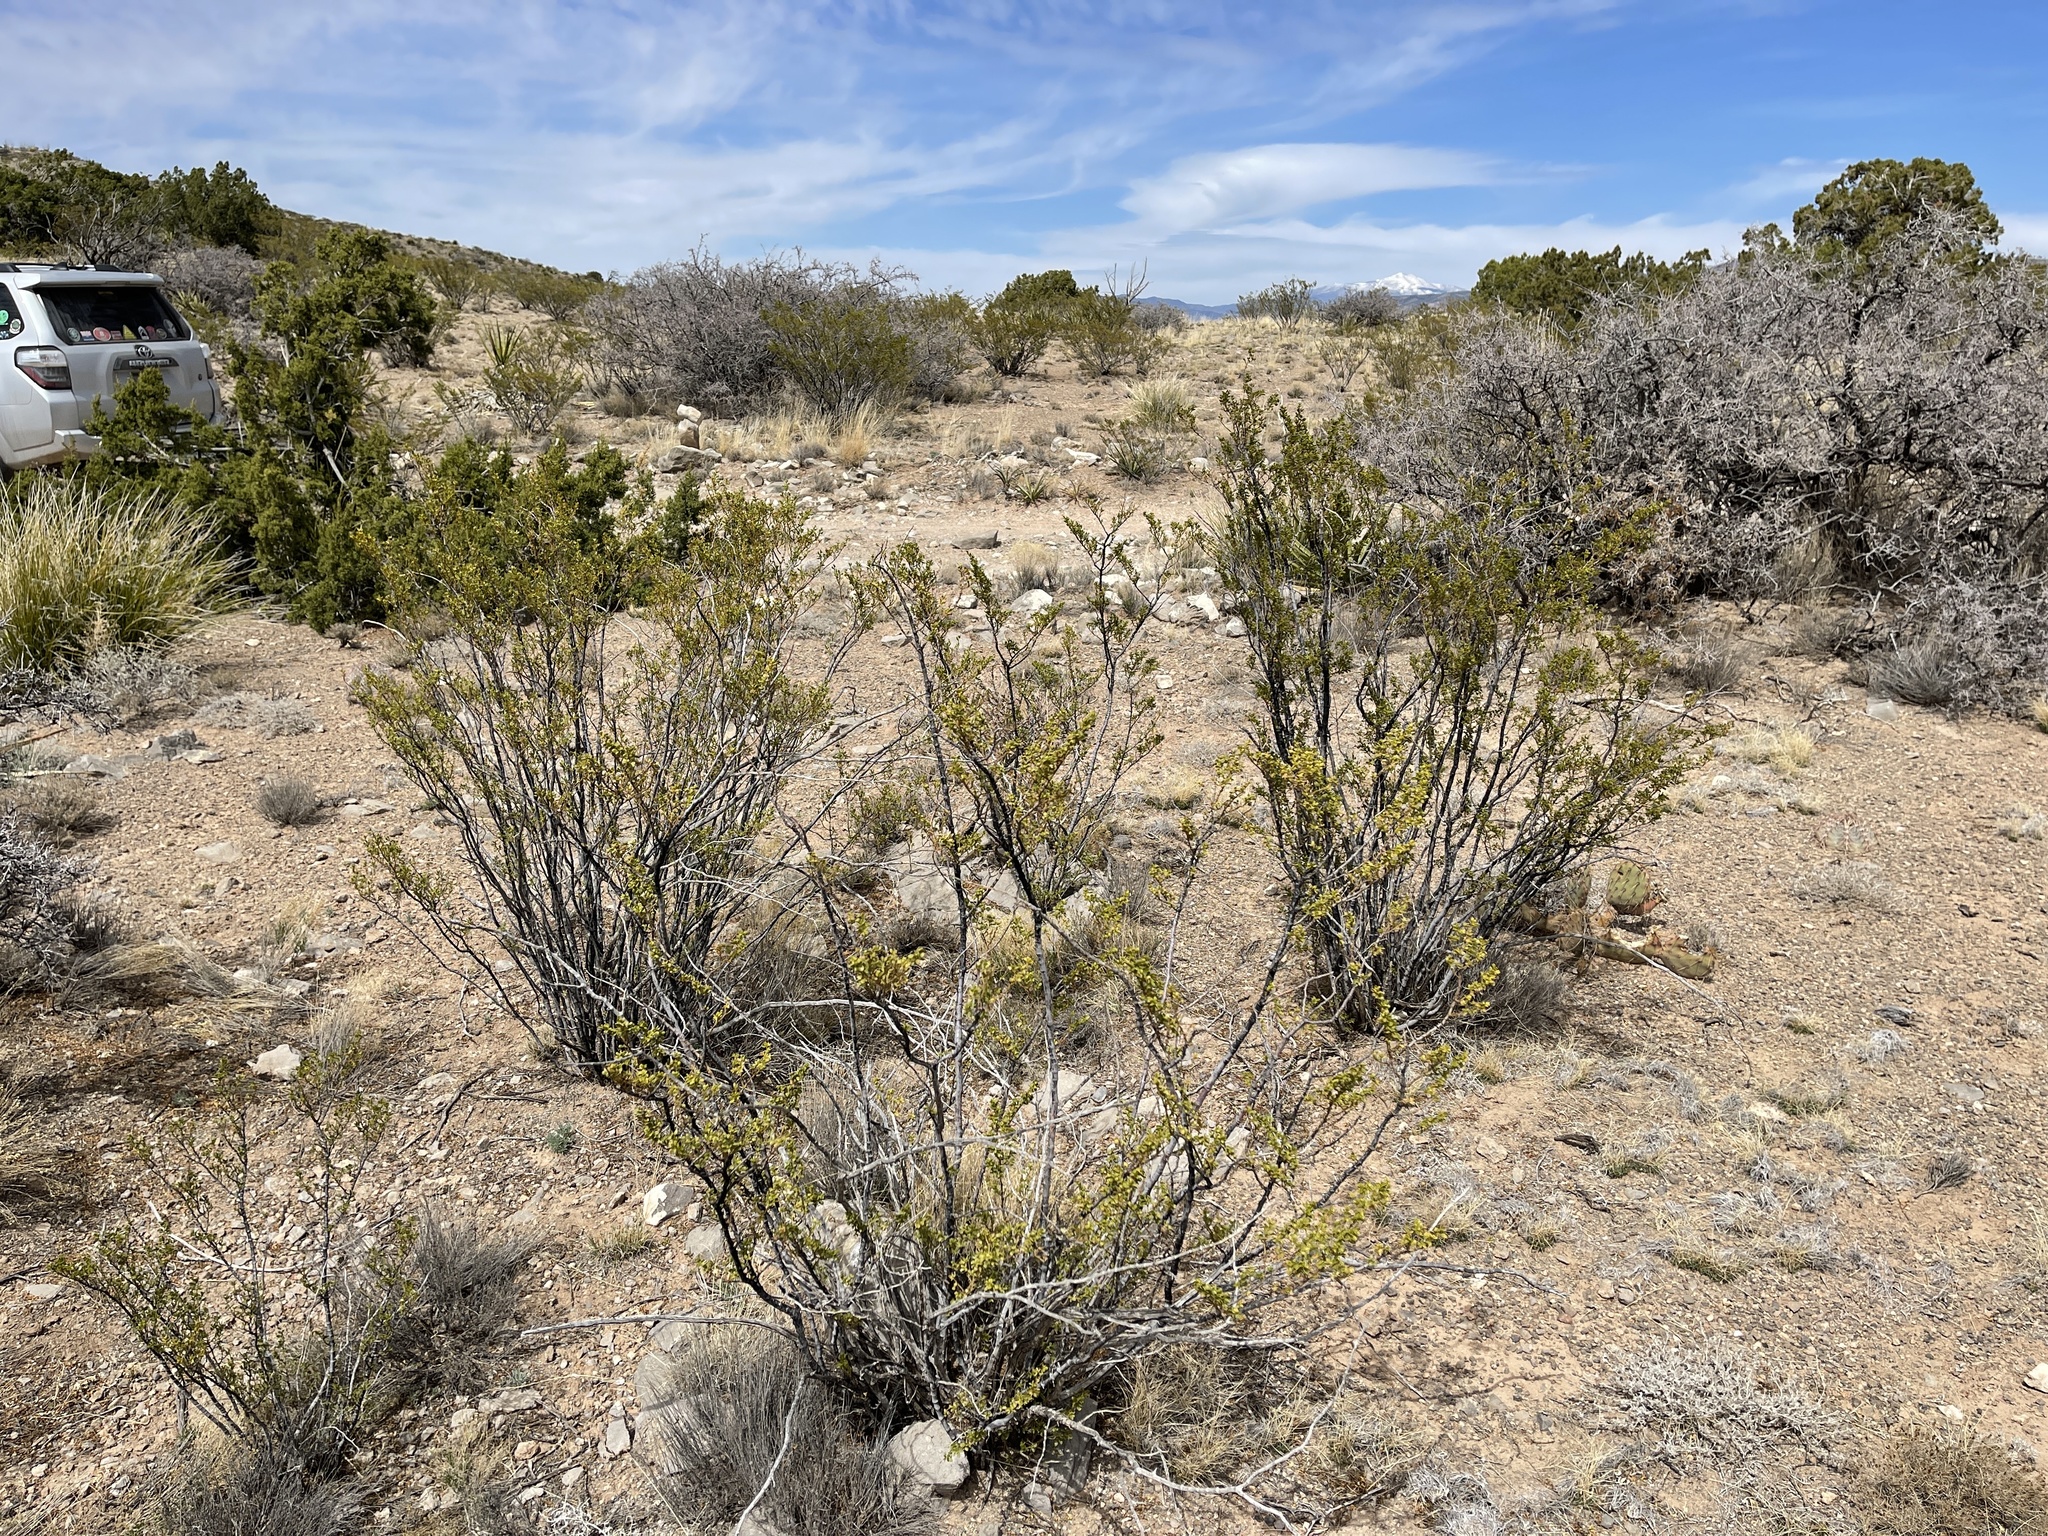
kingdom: Plantae
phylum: Tracheophyta
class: Magnoliopsida
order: Zygophyllales
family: Zygophyllaceae
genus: Larrea
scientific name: Larrea tridentata
